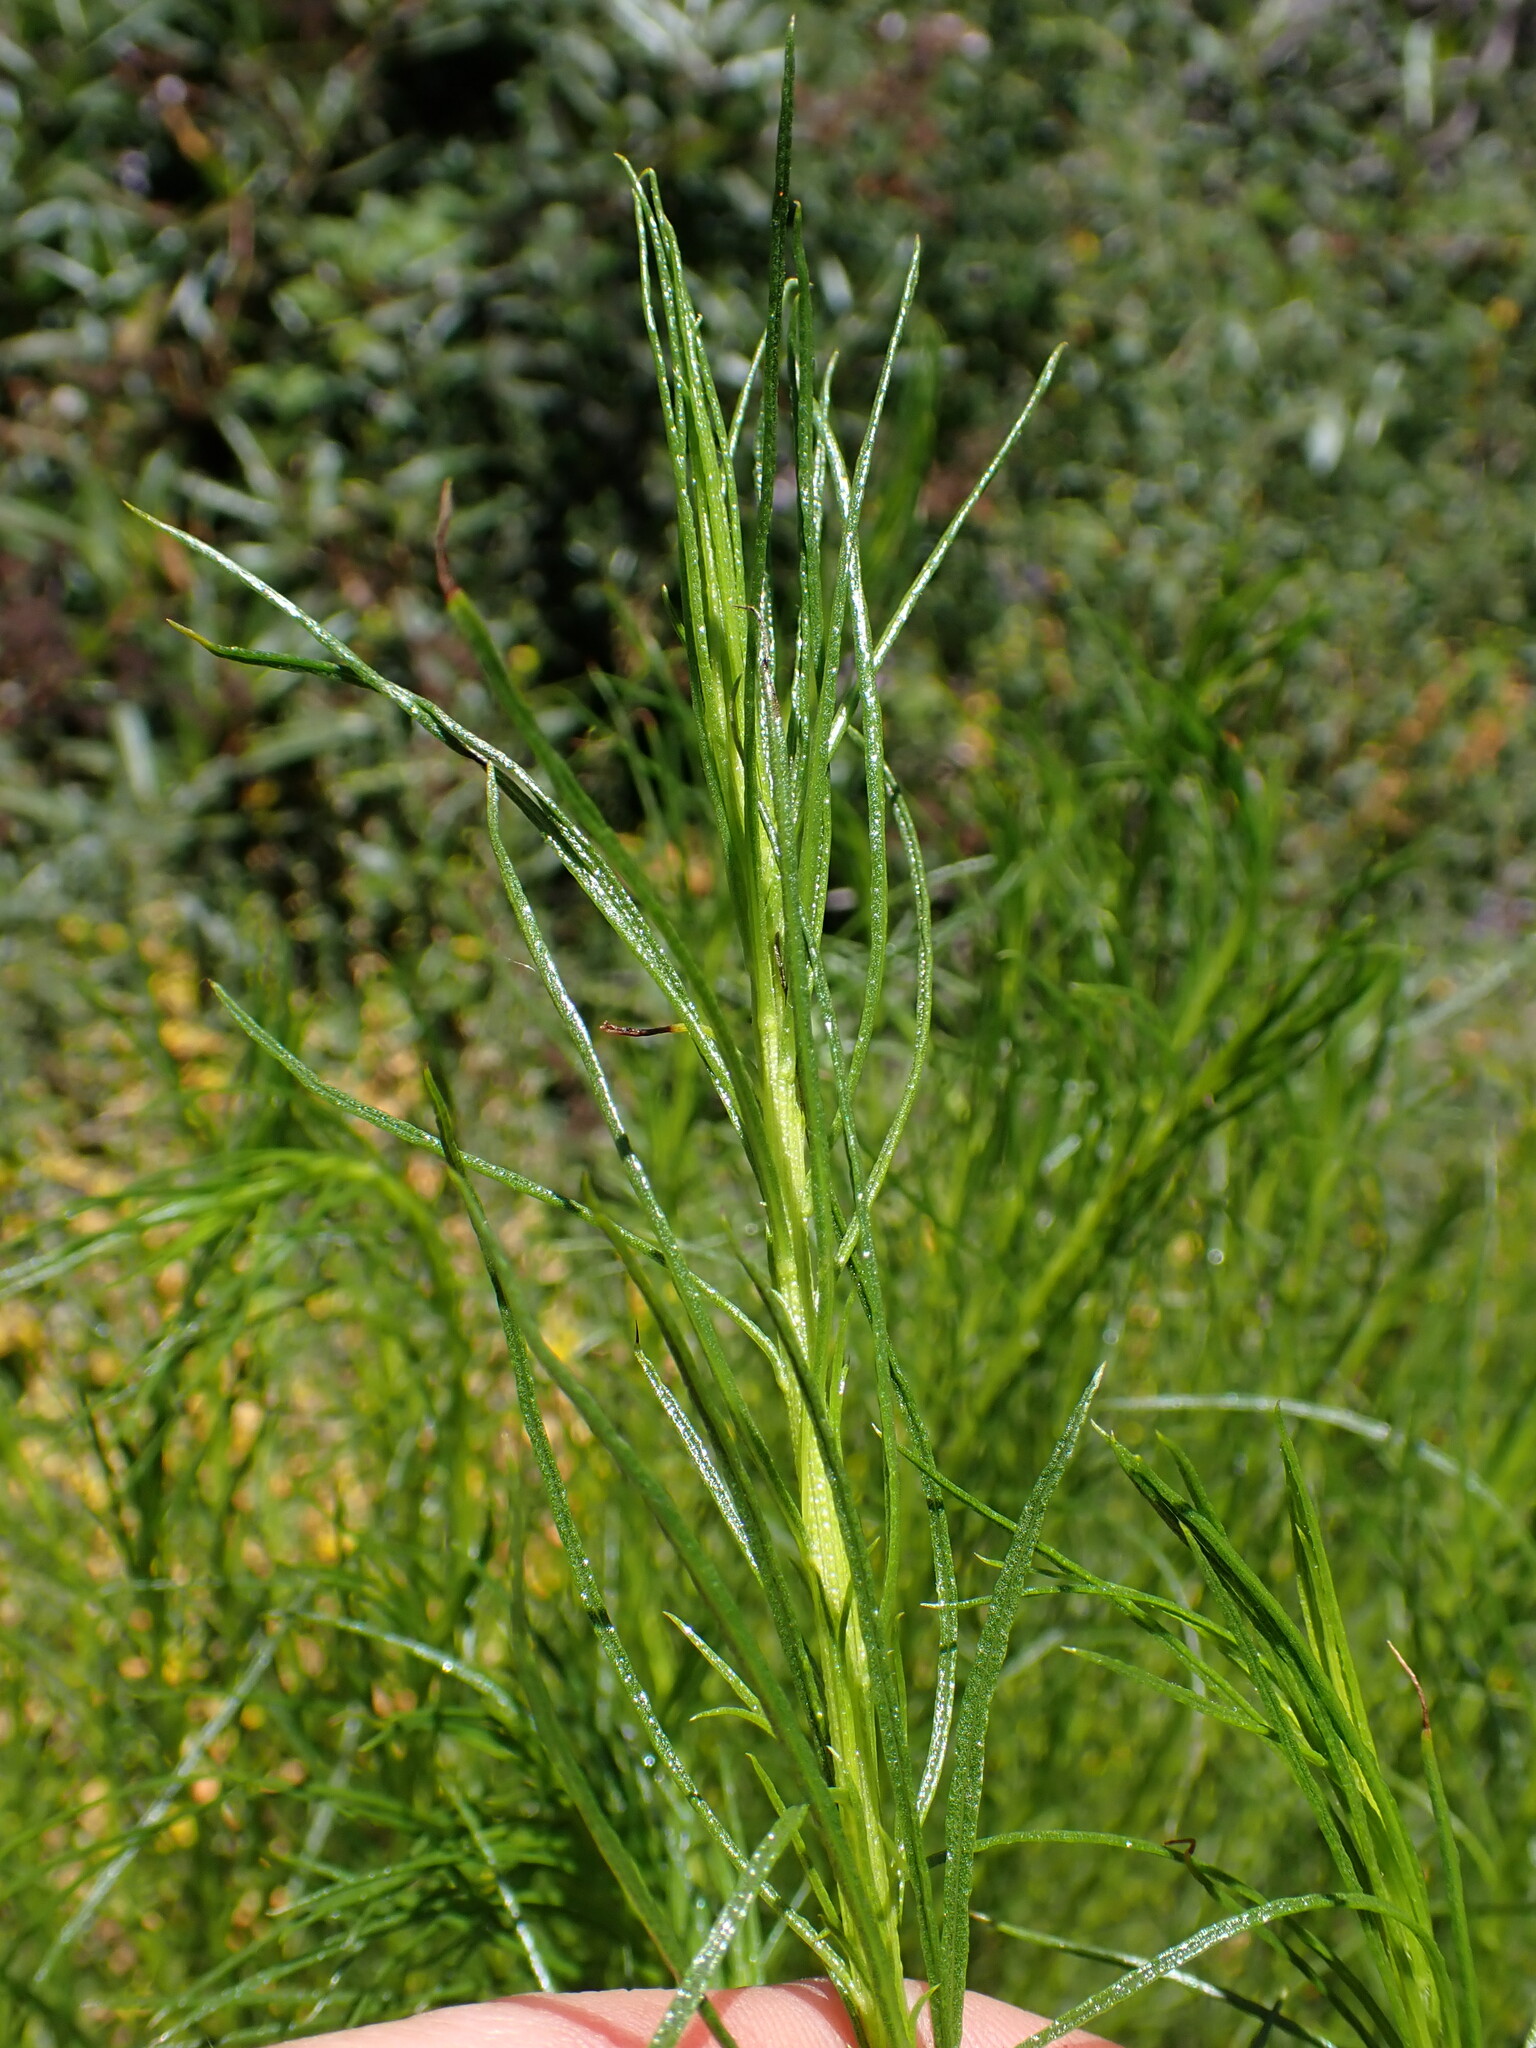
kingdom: Plantae
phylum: Tracheophyta
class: Magnoliopsida
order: Asterales
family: Asteraceae
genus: Ericameria
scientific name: Ericameria arborescens
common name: Goldenfleece
